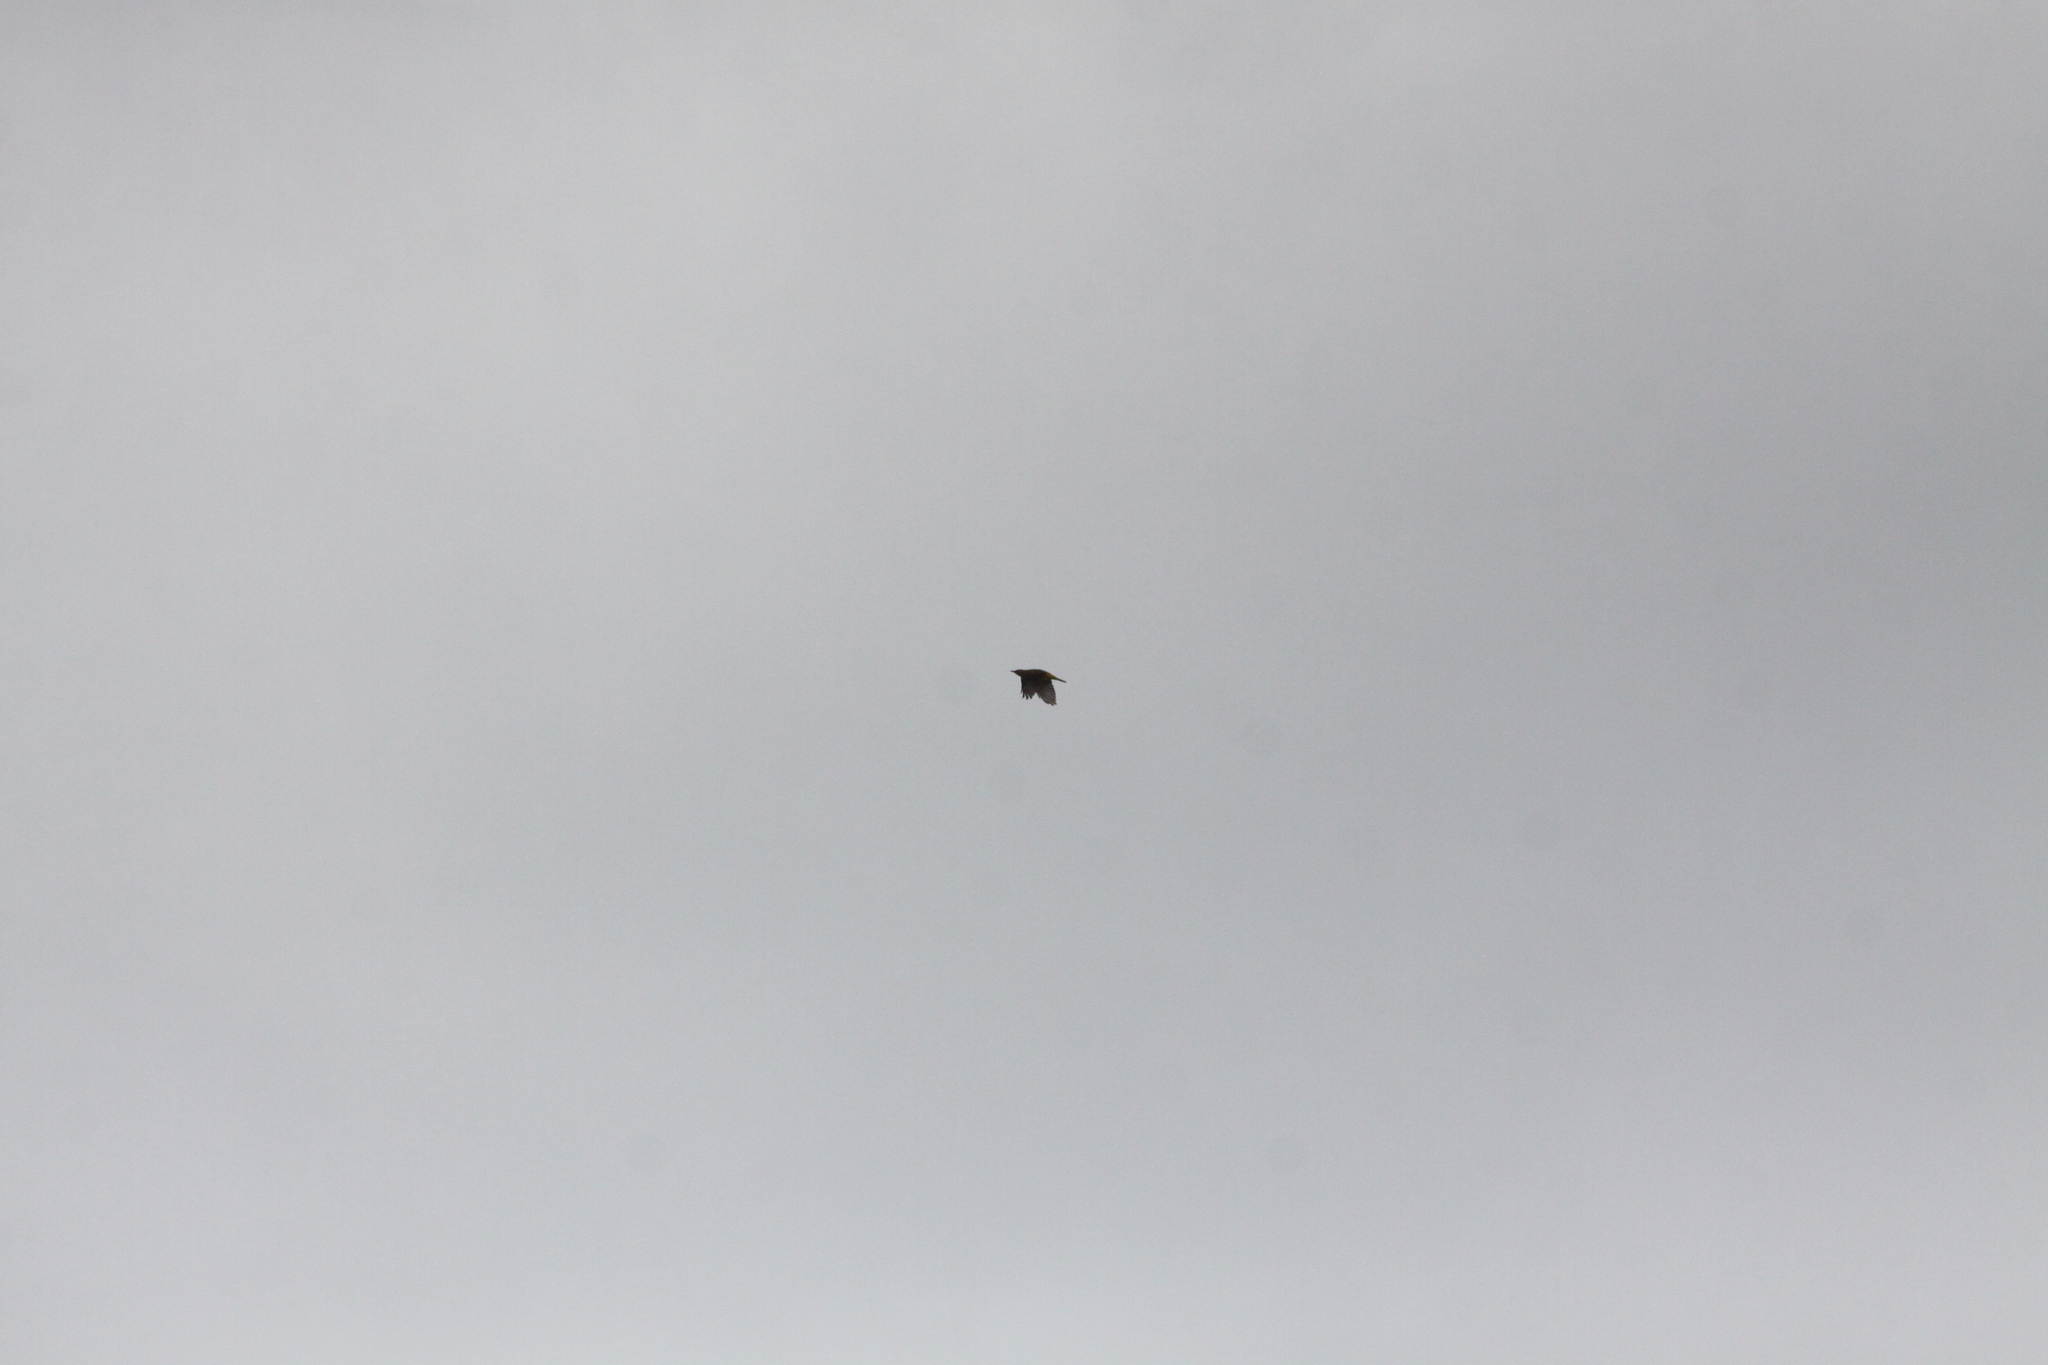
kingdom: Animalia
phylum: Chordata
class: Aves
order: Passeriformes
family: Oriolidae
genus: Oriolus
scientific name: Oriolus oriolus
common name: Eurasian golden oriole
